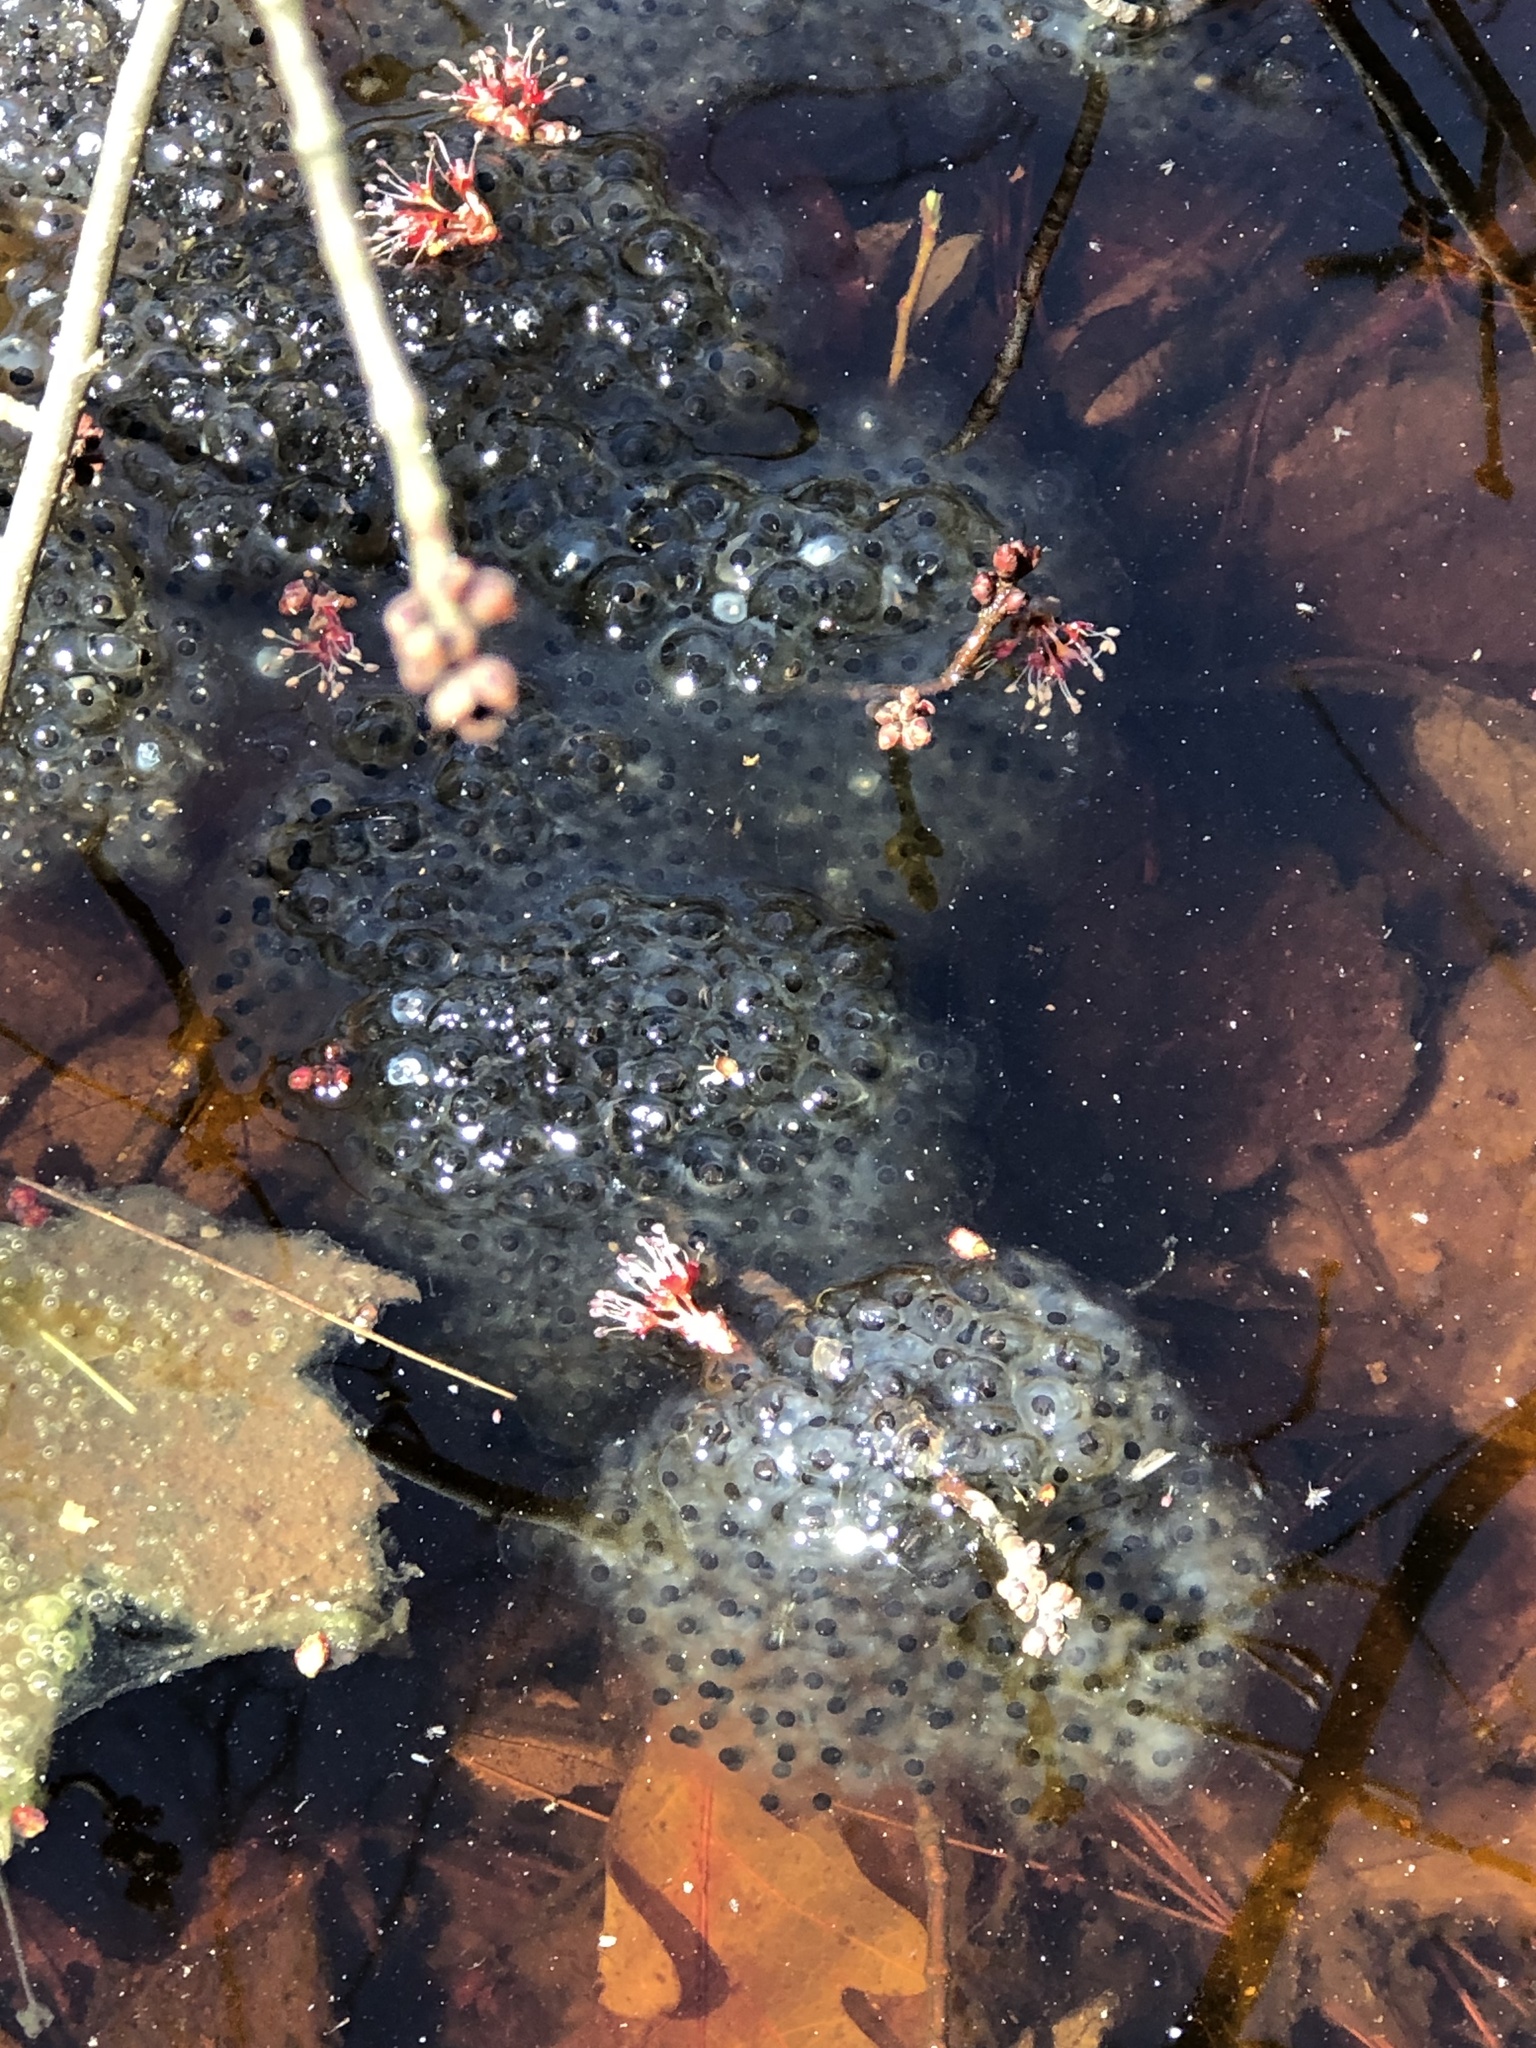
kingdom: Animalia
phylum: Chordata
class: Amphibia
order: Anura
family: Ranidae
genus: Lithobates
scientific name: Lithobates sylvaticus
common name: Wood frog
